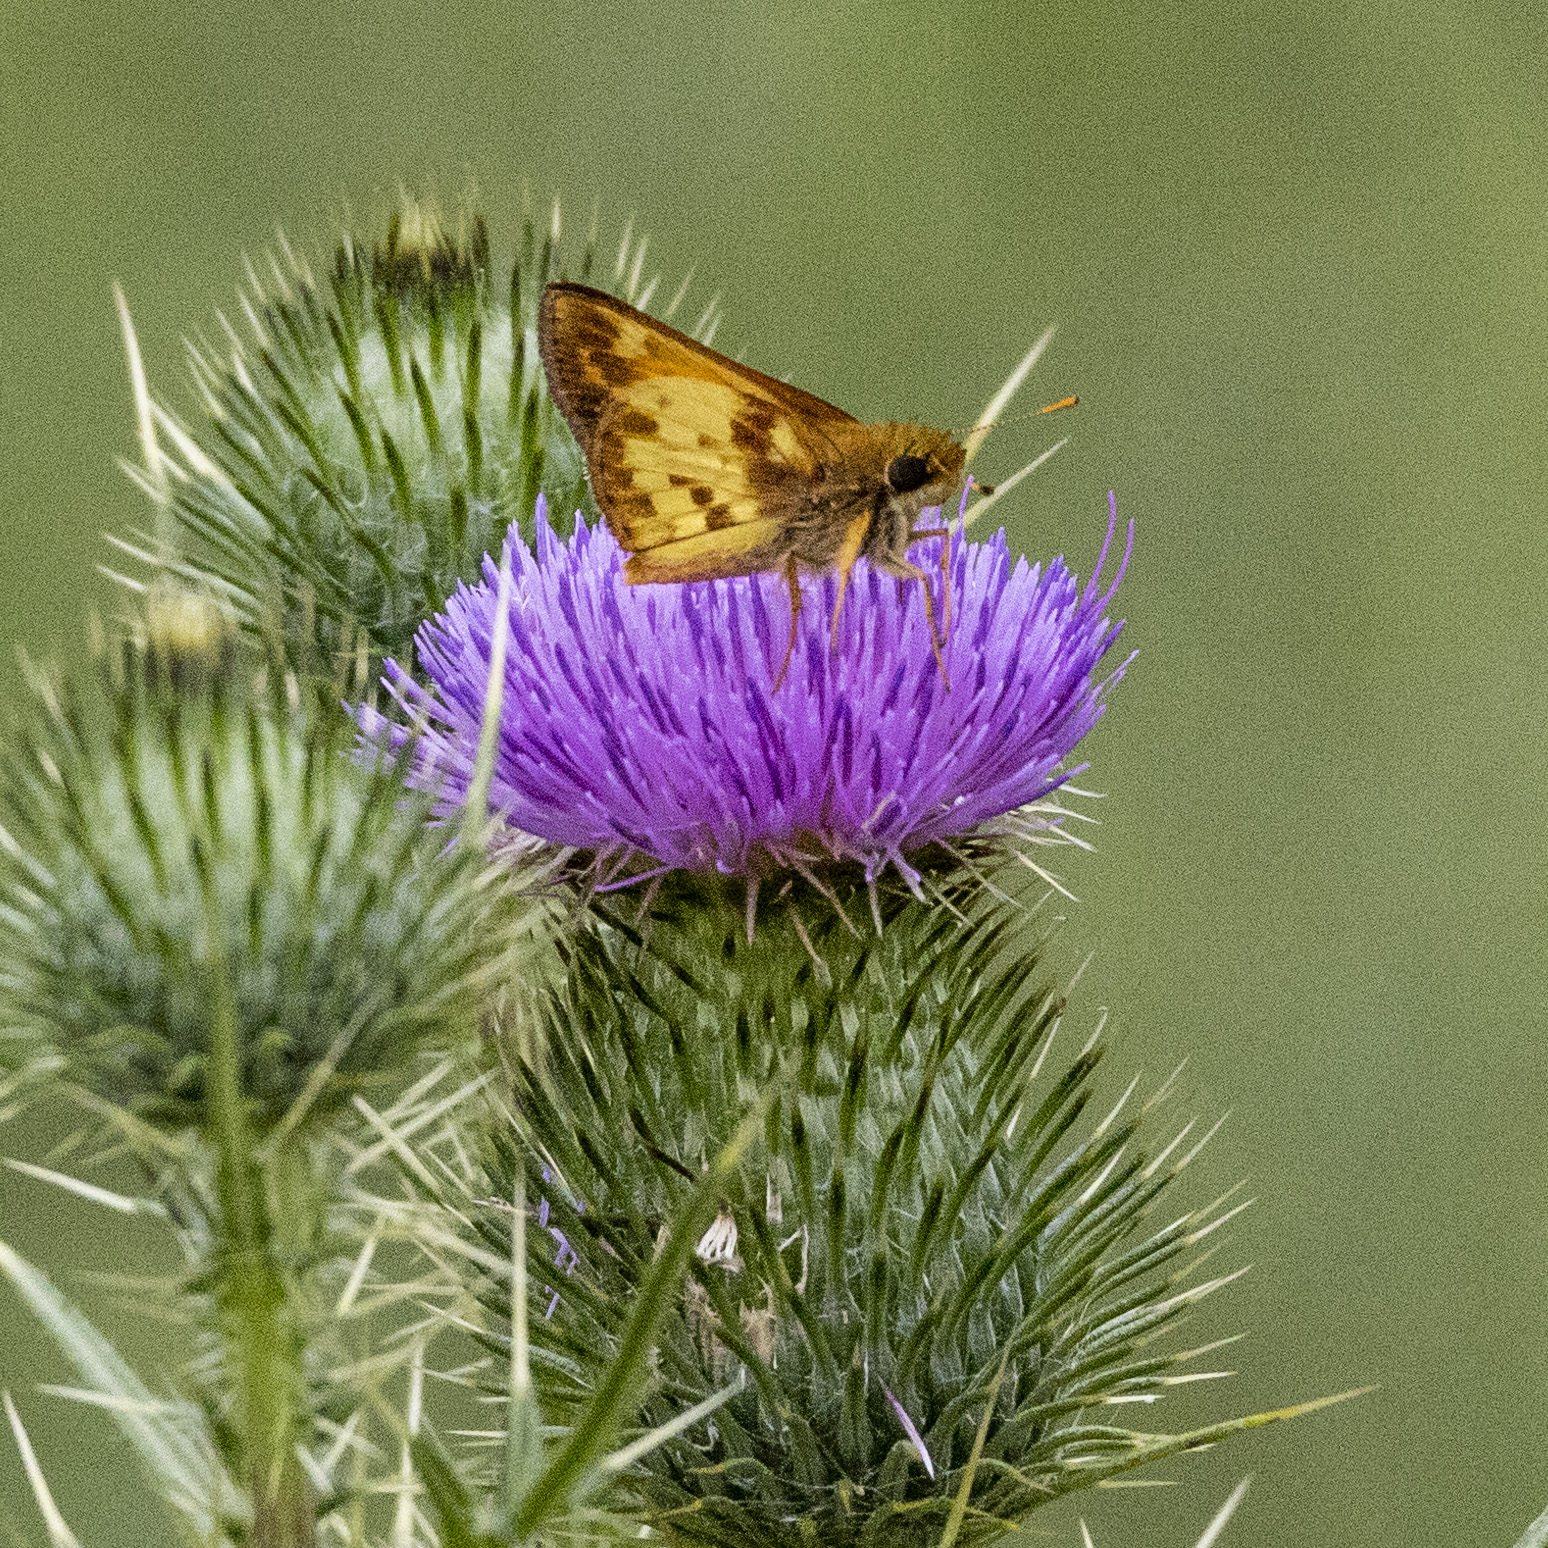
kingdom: Animalia
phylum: Arthropoda
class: Insecta
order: Lepidoptera
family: Hesperiidae
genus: Lon
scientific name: Lon zabulon
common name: Zabulon skipper
